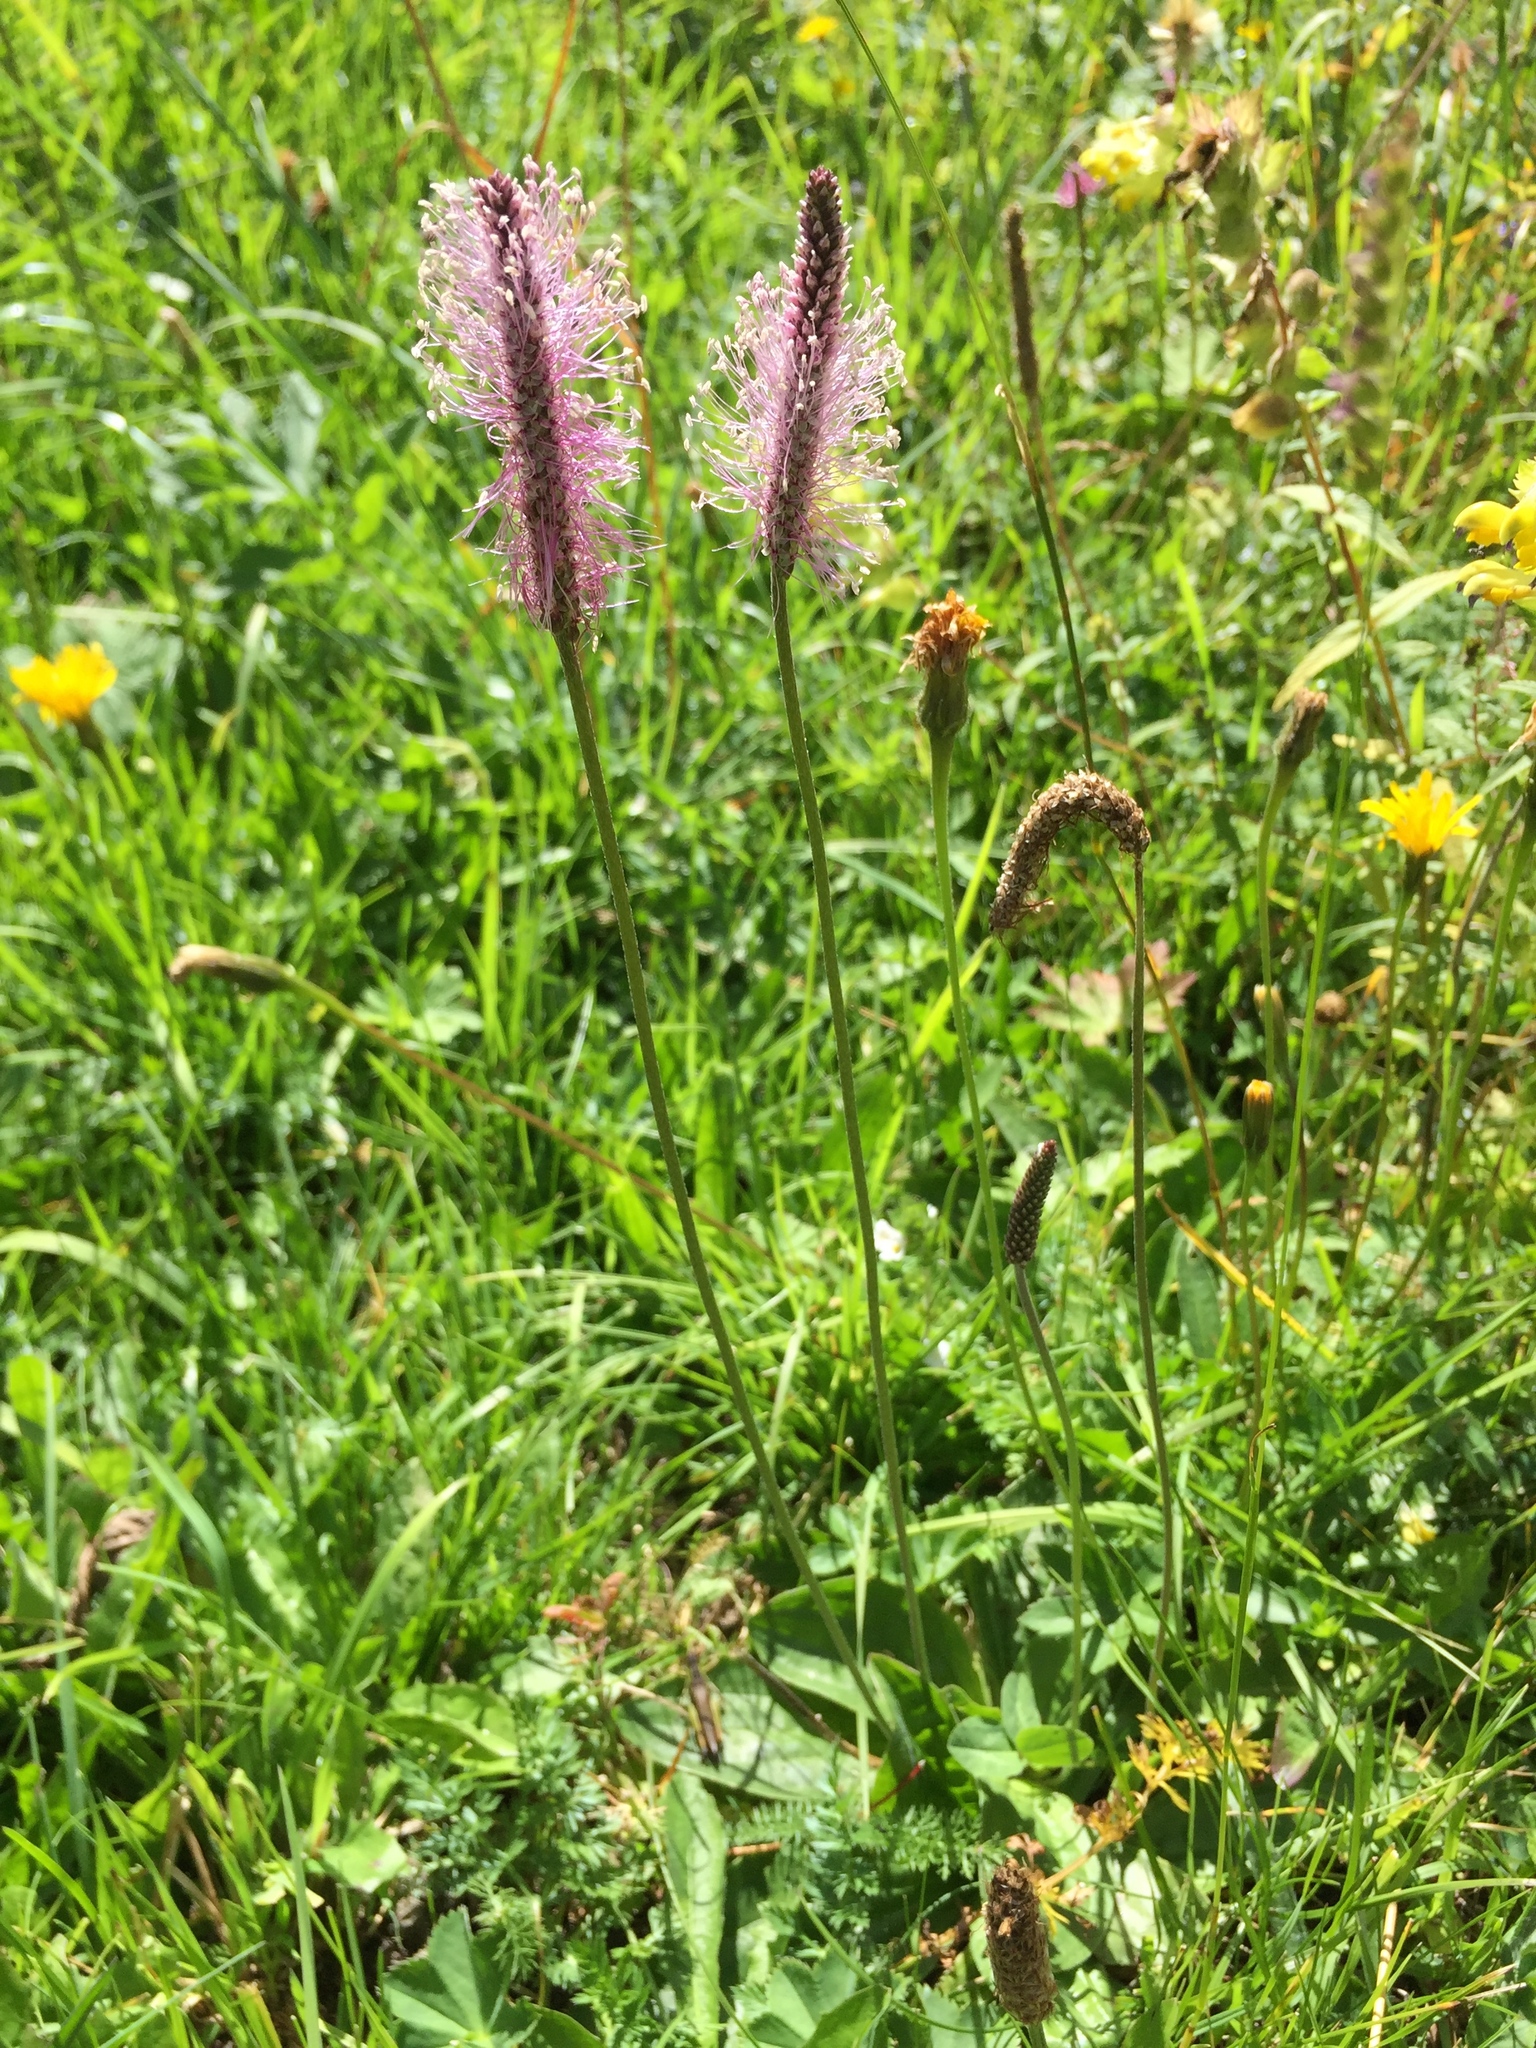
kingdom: Plantae
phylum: Tracheophyta
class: Magnoliopsida
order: Lamiales
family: Plantaginaceae
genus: Plantago
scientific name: Plantago media
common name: Hoary plantain
